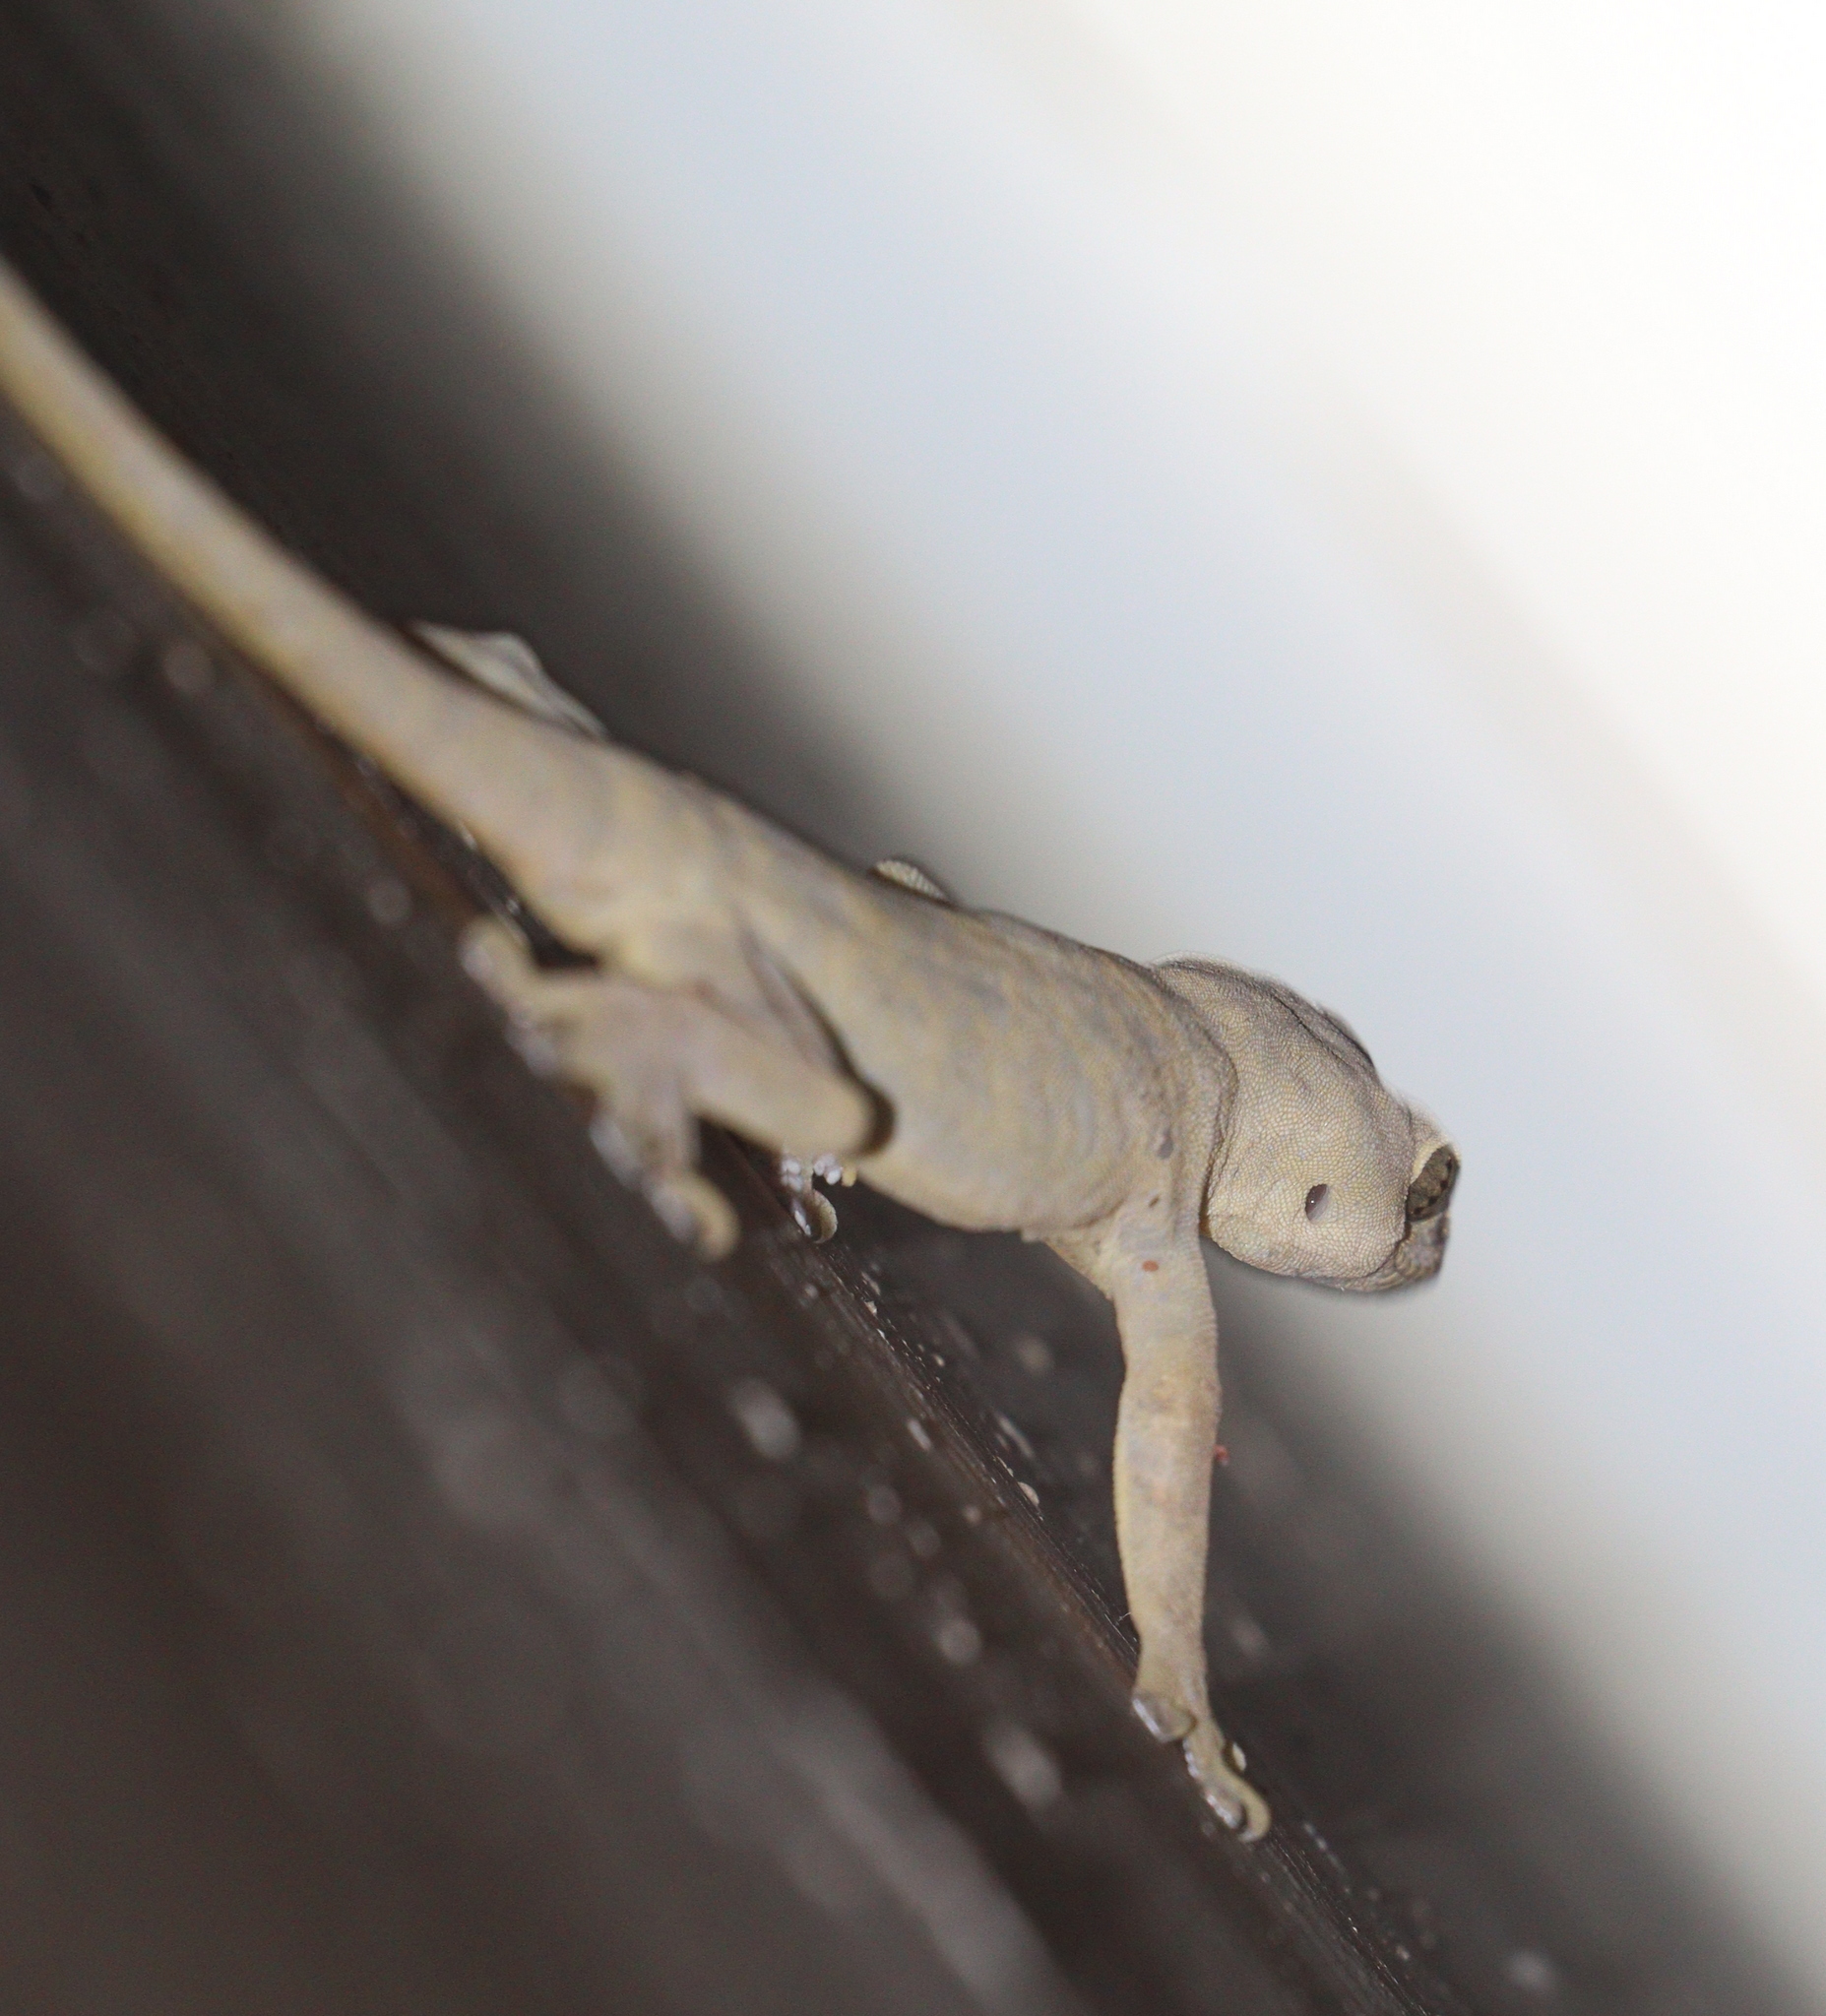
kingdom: Animalia
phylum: Chordata
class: Squamata
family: Gekkonidae
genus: Hemidactylus
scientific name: Hemidactylus platyurus
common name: Flat-tailed house gecko
